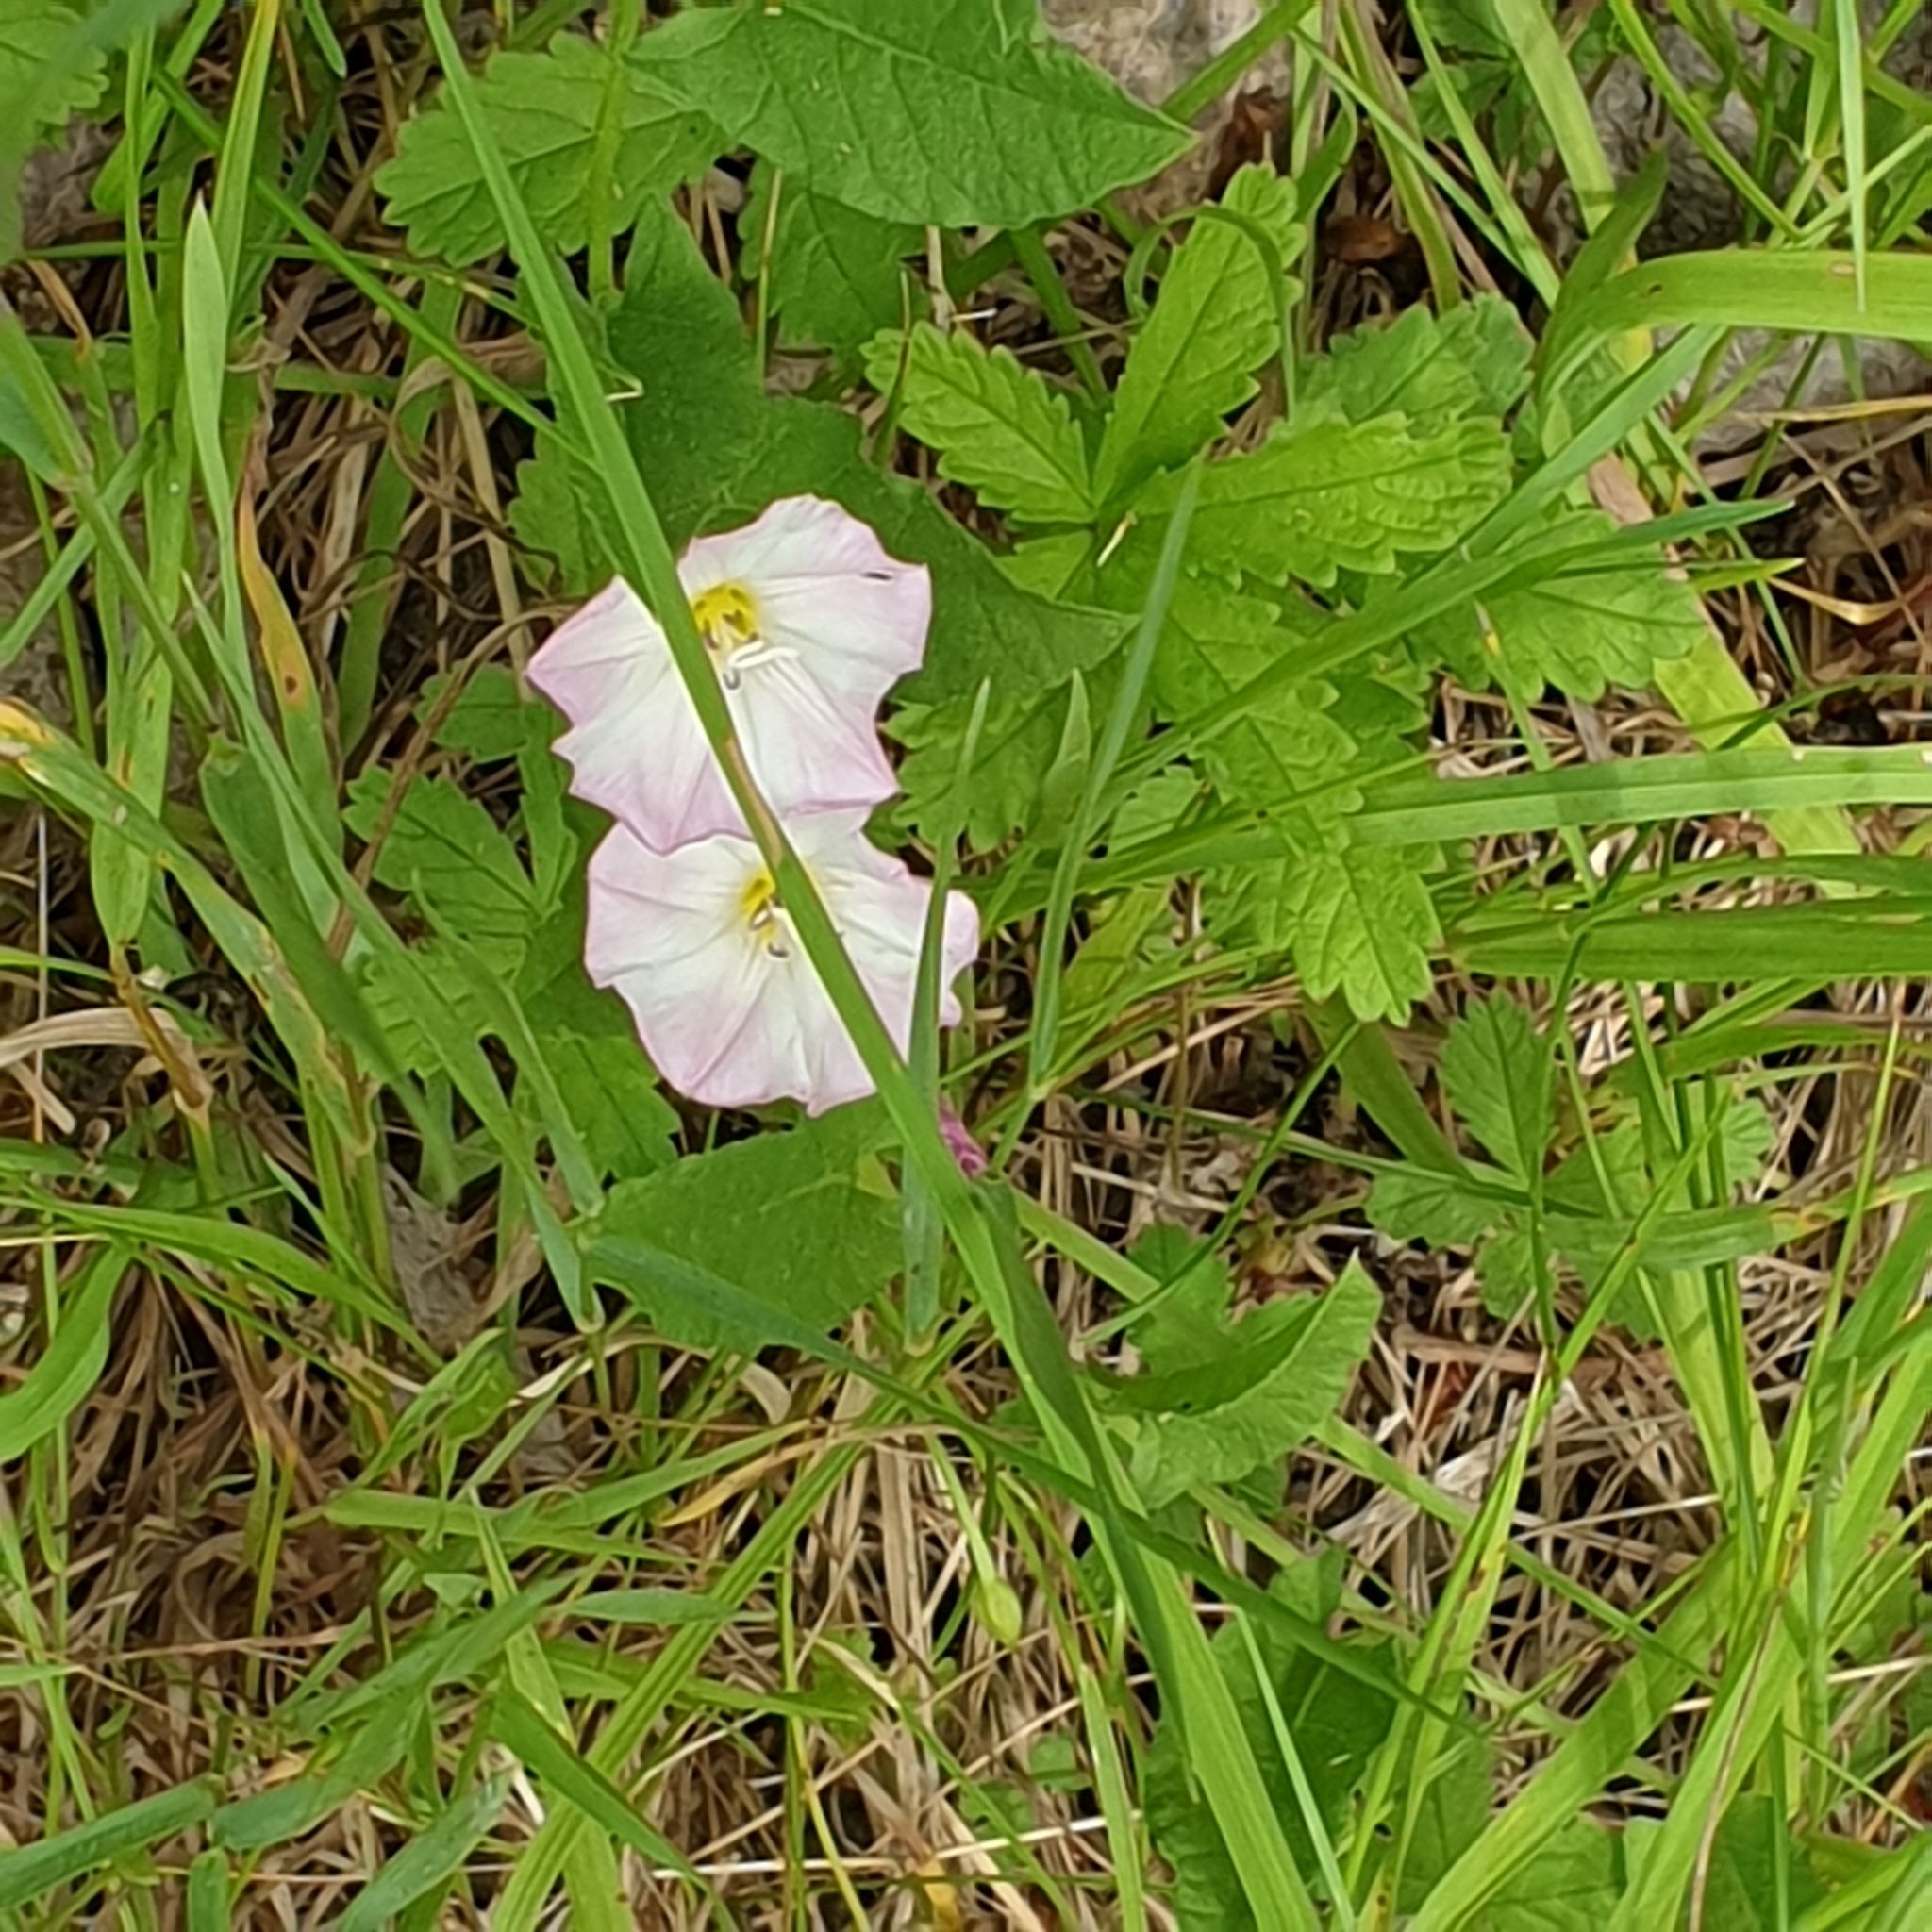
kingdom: Plantae
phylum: Tracheophyta
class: Magnoliopsida
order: Solanales
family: Convolvulaceae
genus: Convolvulus
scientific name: Convolvulus arvensis
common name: Field bindweed
